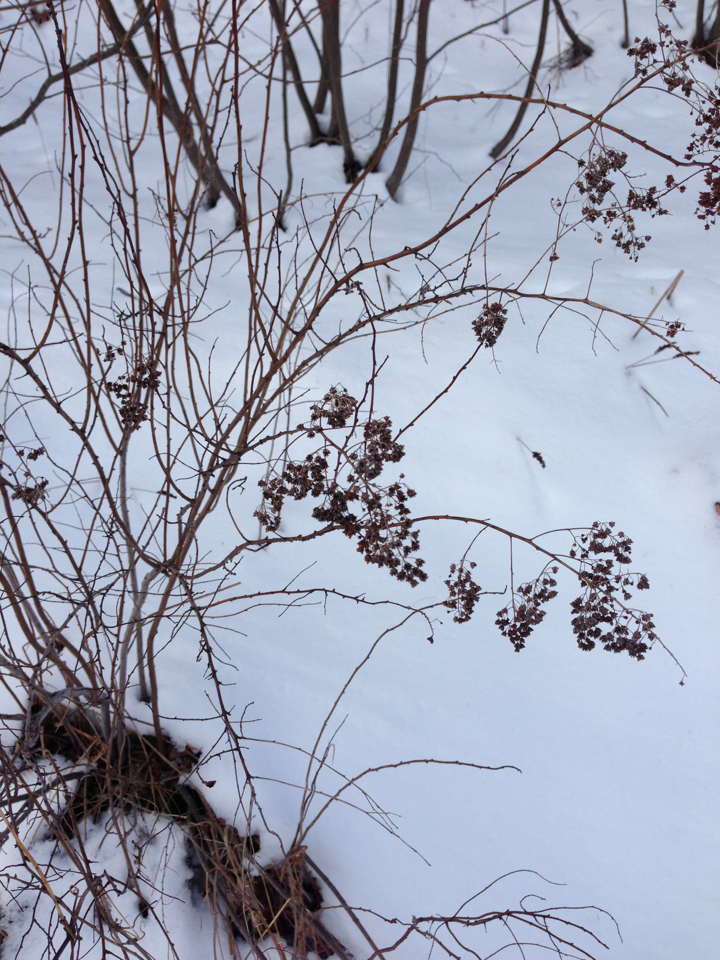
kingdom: Plantae
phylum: Tracheophyta
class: Magnoliopsida
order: Rosales
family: Rosaceae
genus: Spiraea
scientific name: Spiraea alba
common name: Pale bridewort
